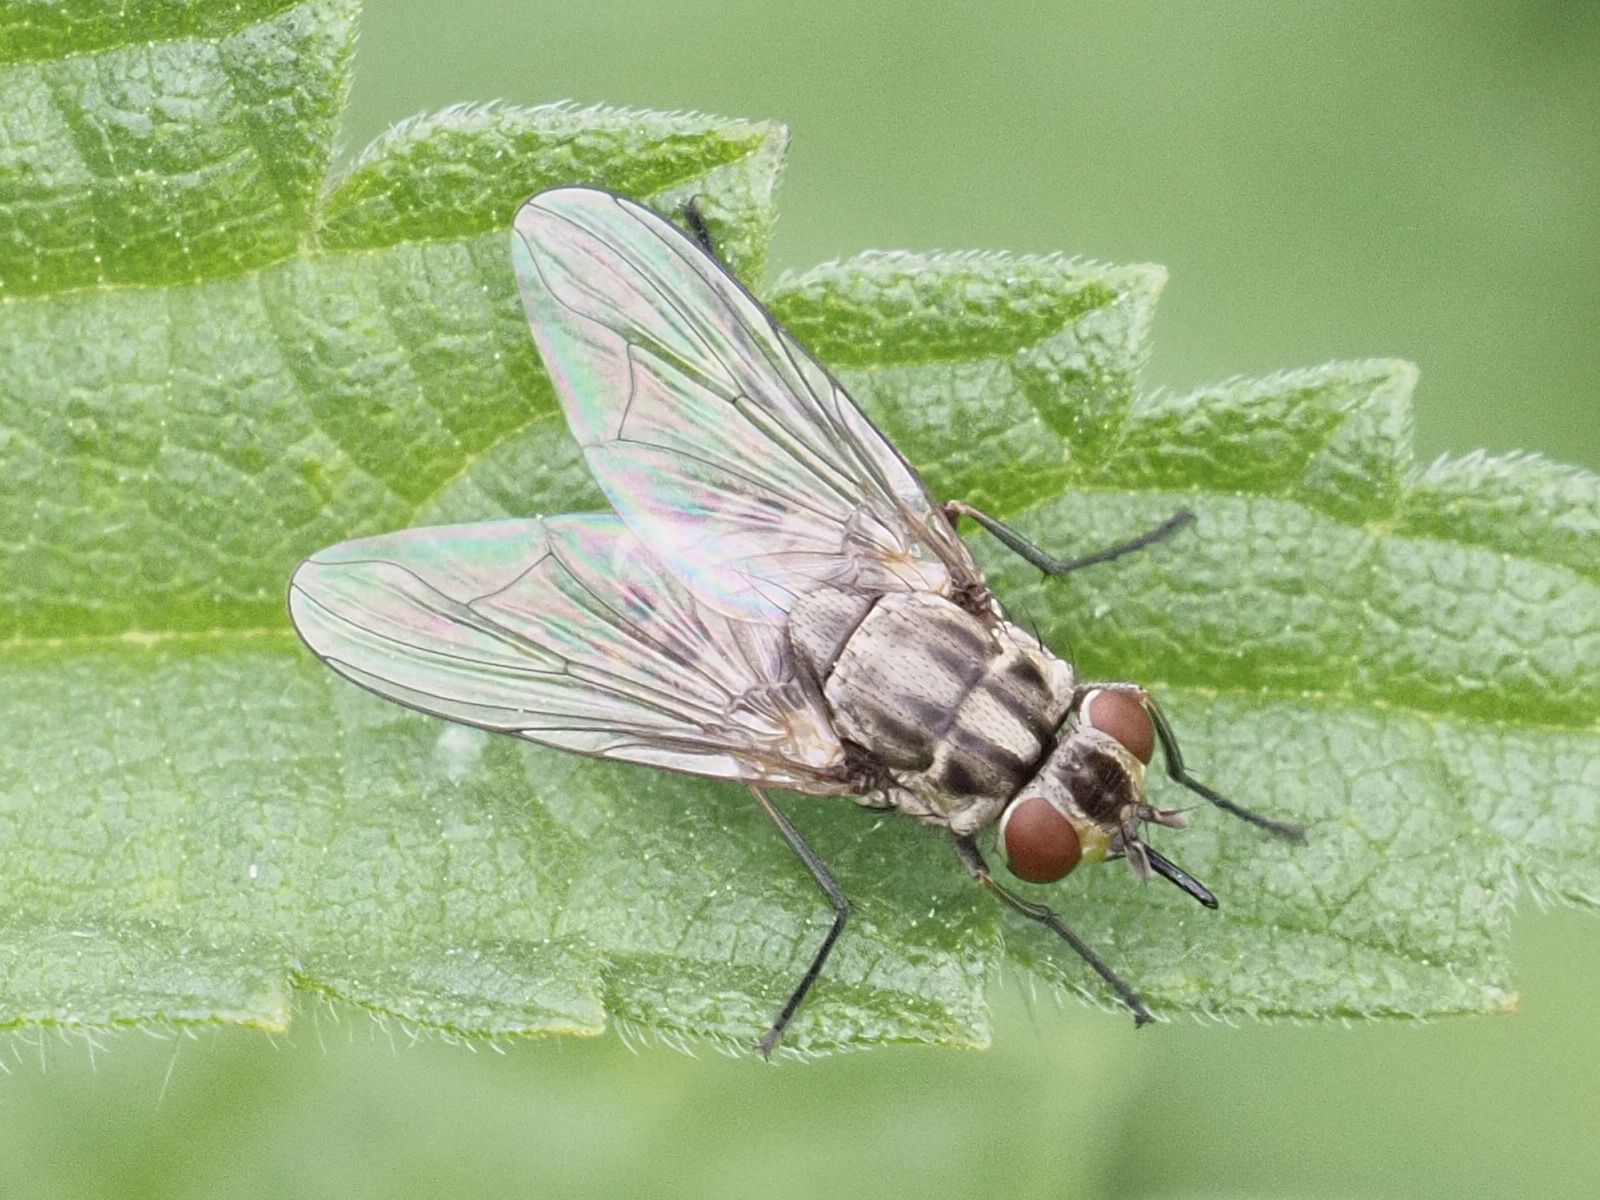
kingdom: Animalia
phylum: Arthropoda
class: Insecta
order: Diptera
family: Muscidae
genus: Stomoxys
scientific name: Stomoxys calcitrans
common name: Stable fly
